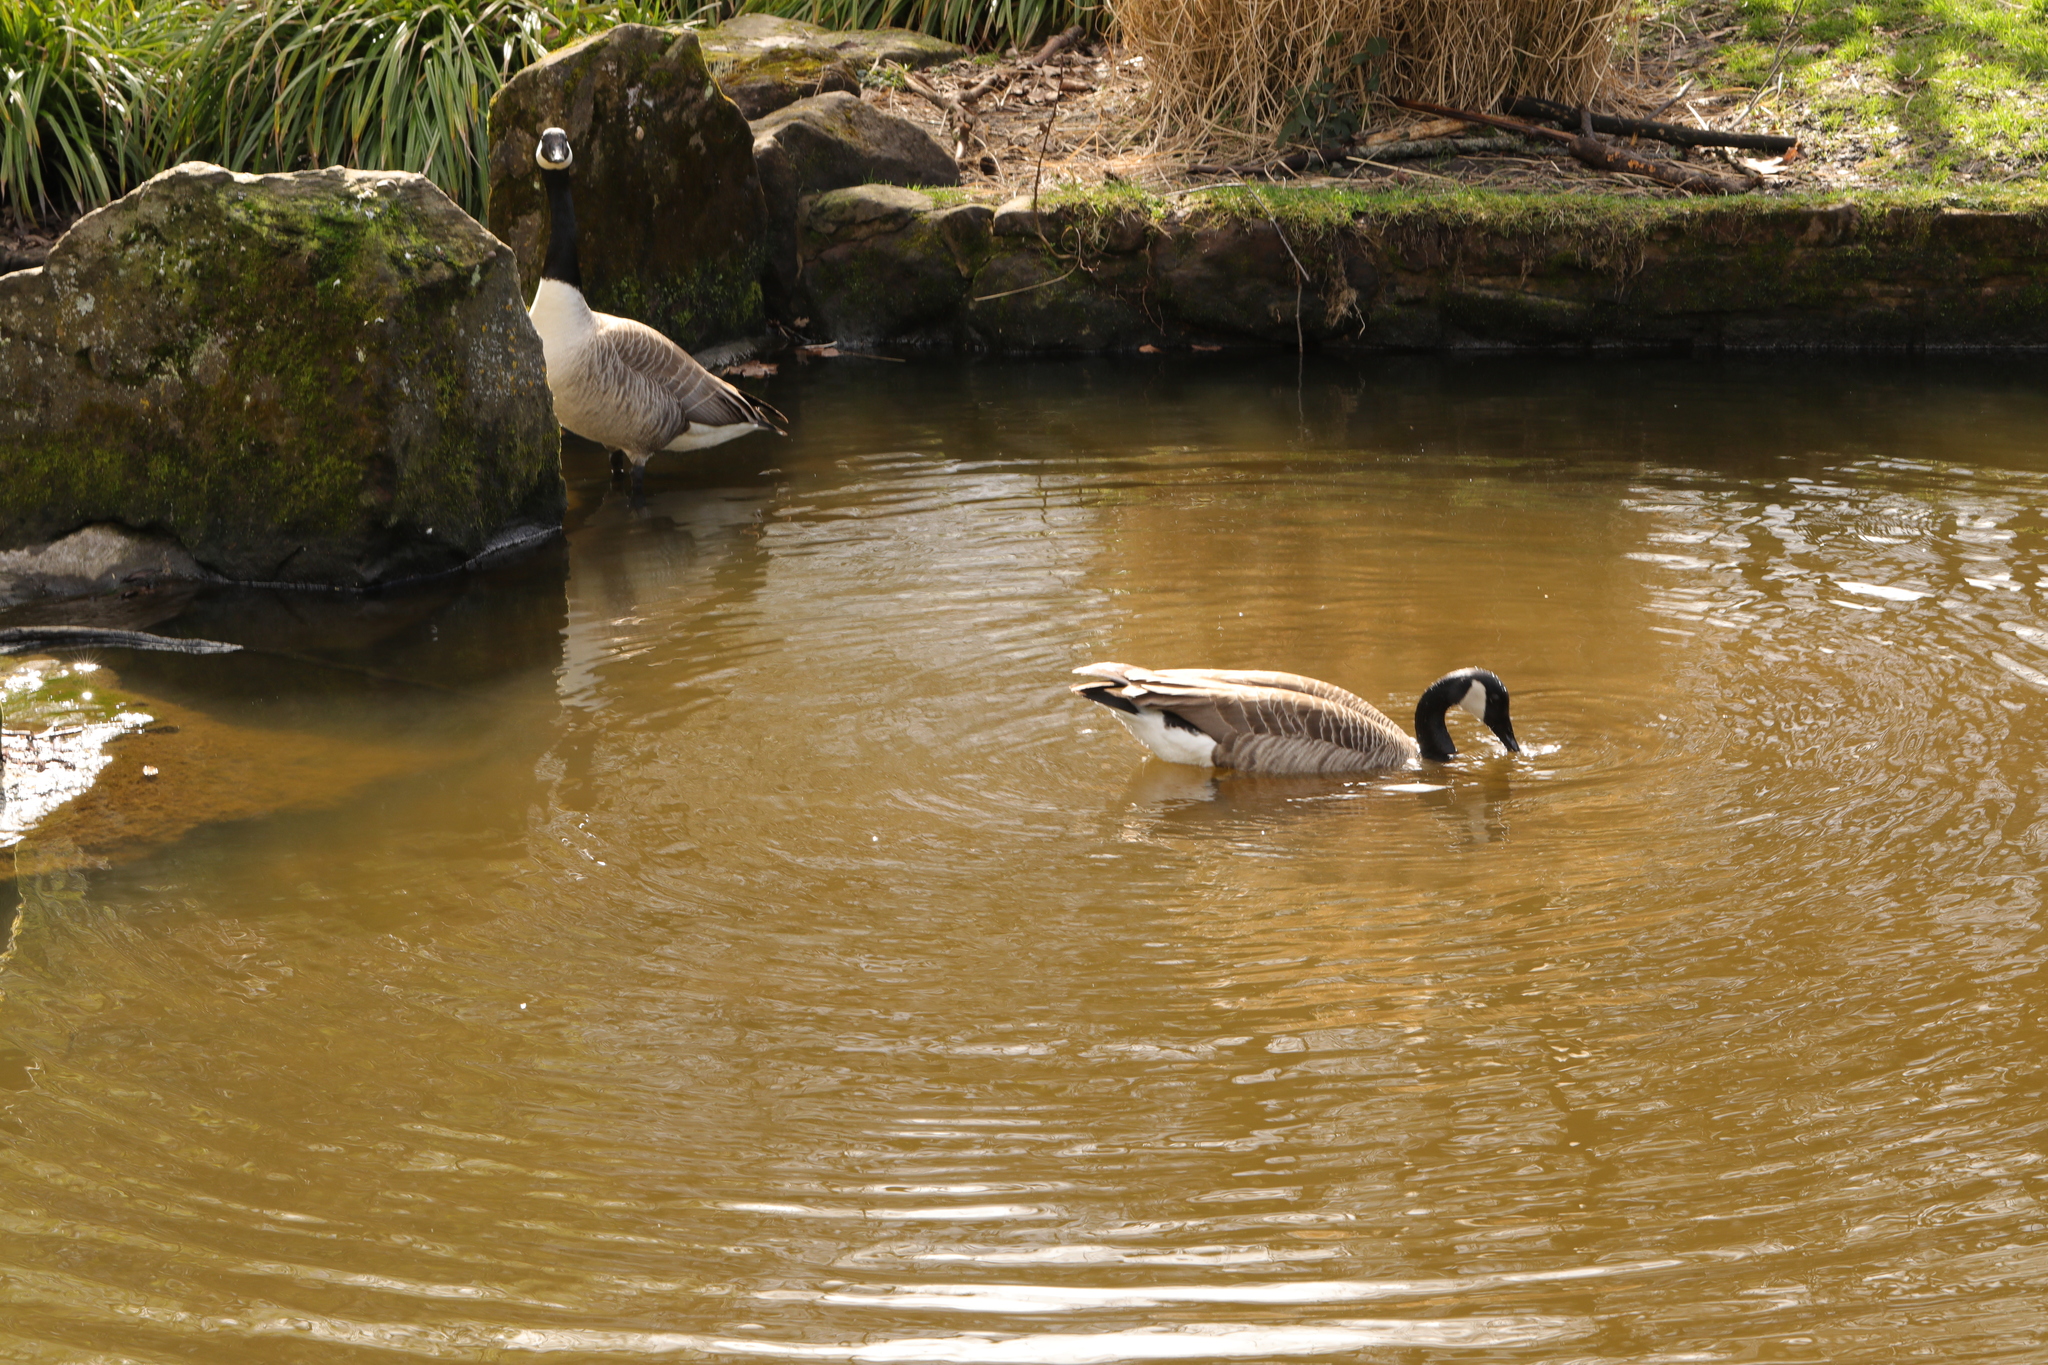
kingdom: Animalia
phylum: Chordata
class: Aves
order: Anseriformes
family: Anatidae
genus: Branta
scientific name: Branta canadensis
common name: Canada goose
